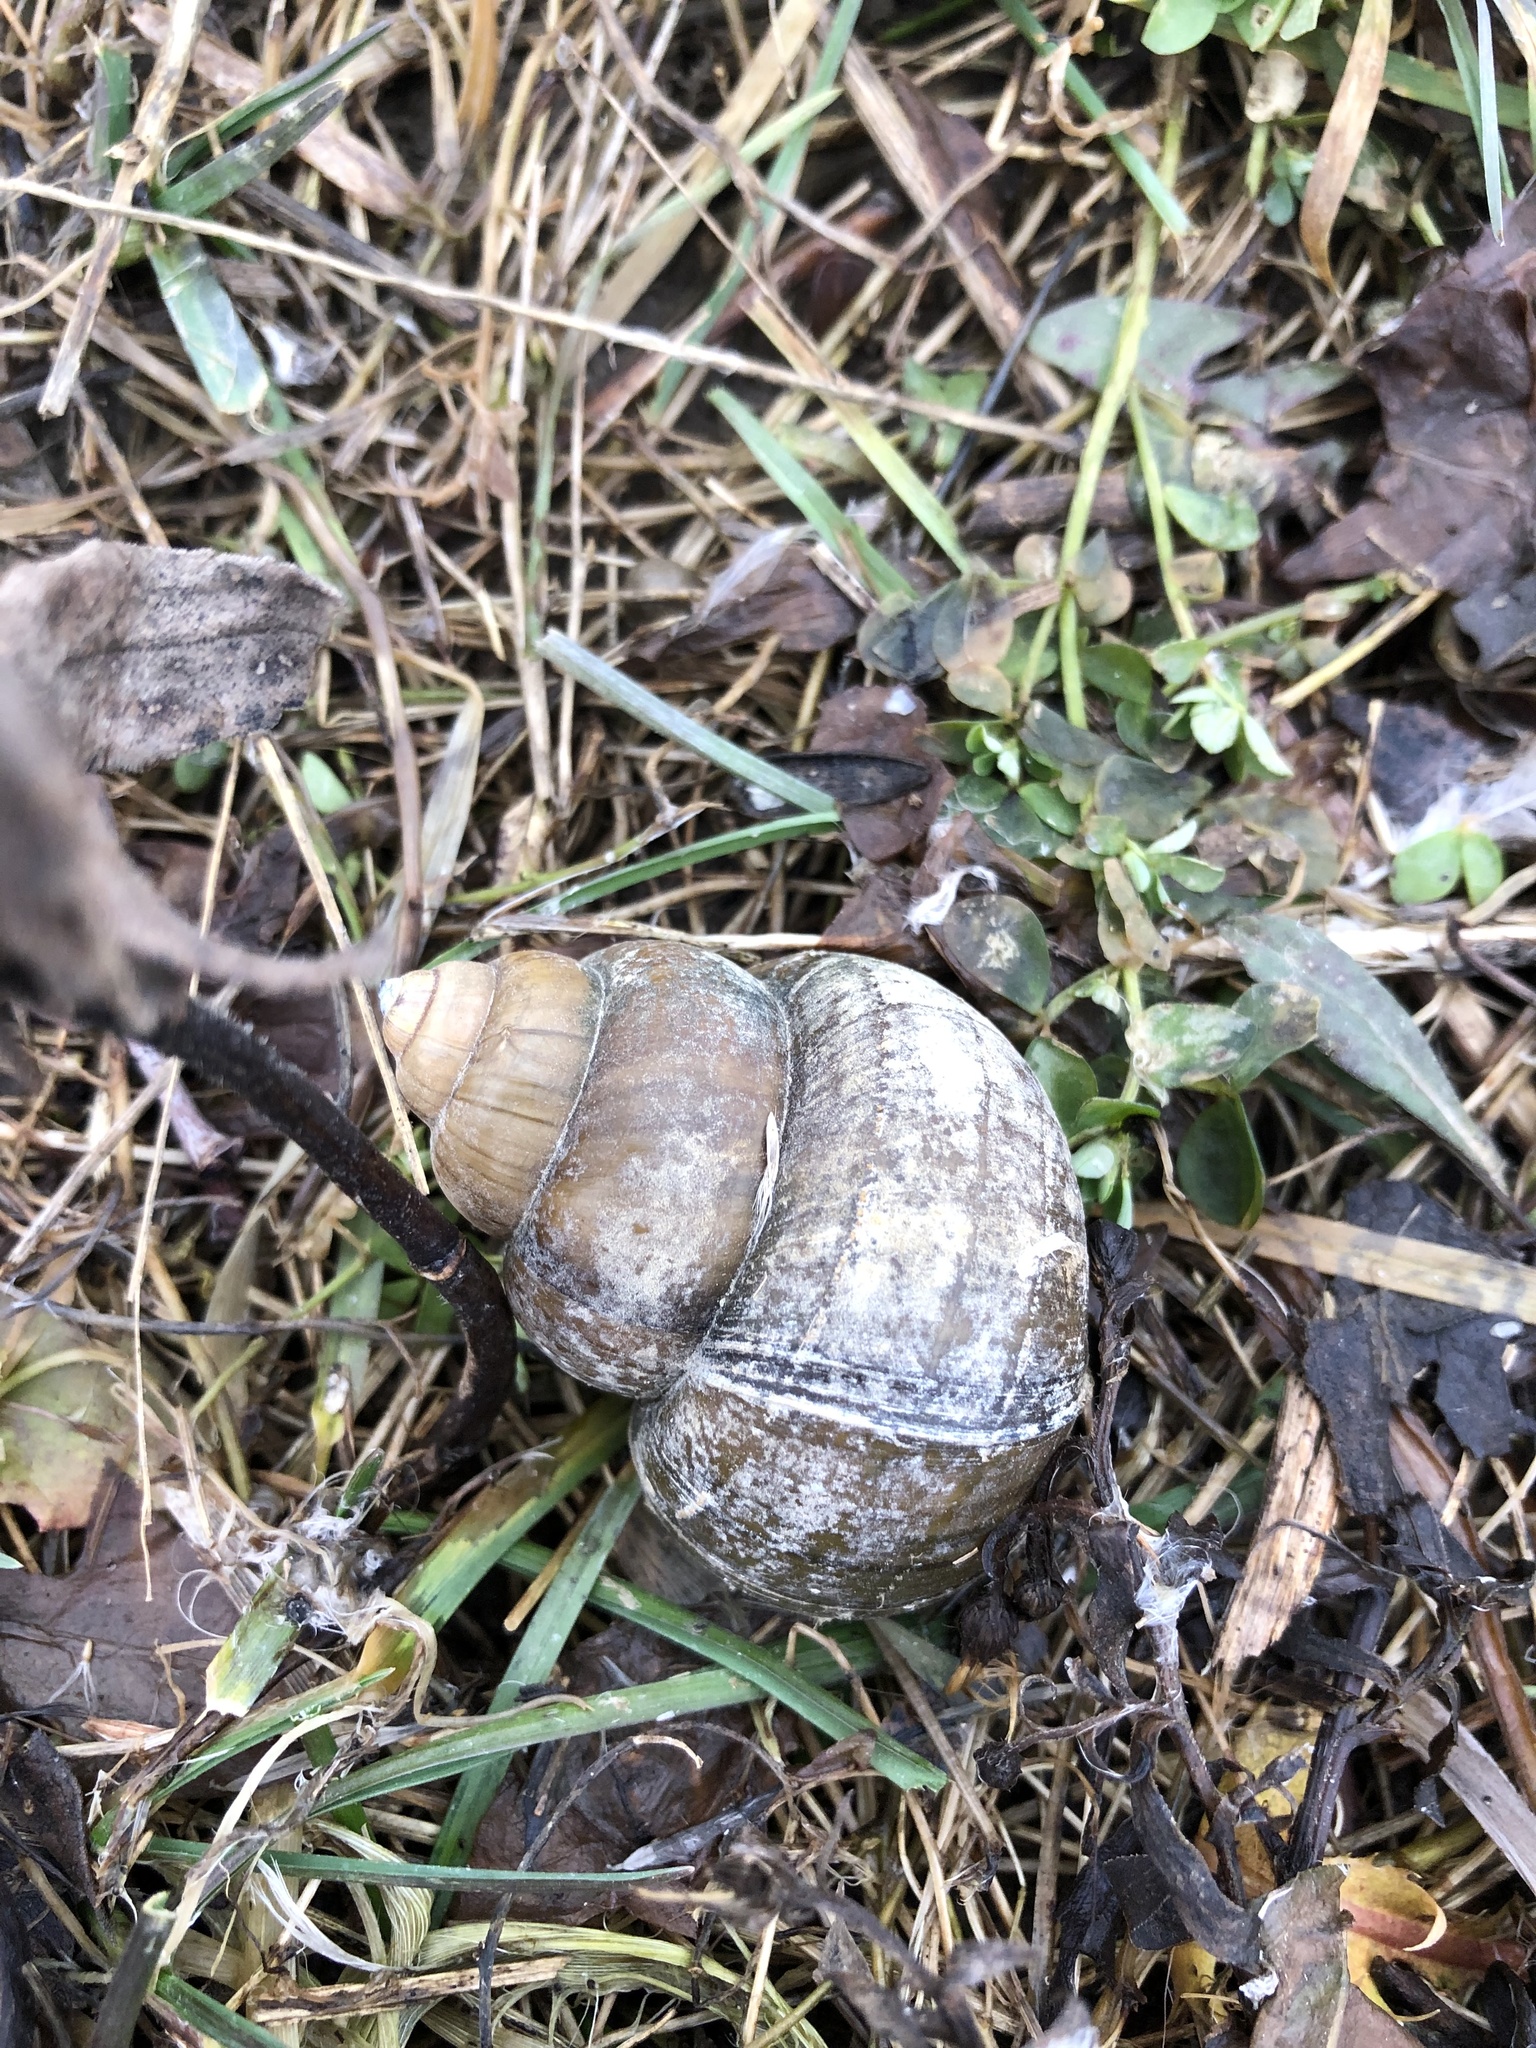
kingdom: Animalia
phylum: Mollusca
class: Gastropoda
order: Architaenioglossa
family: Viviparidae
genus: Cipangopaludina
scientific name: Cipangopaludina chinensis
